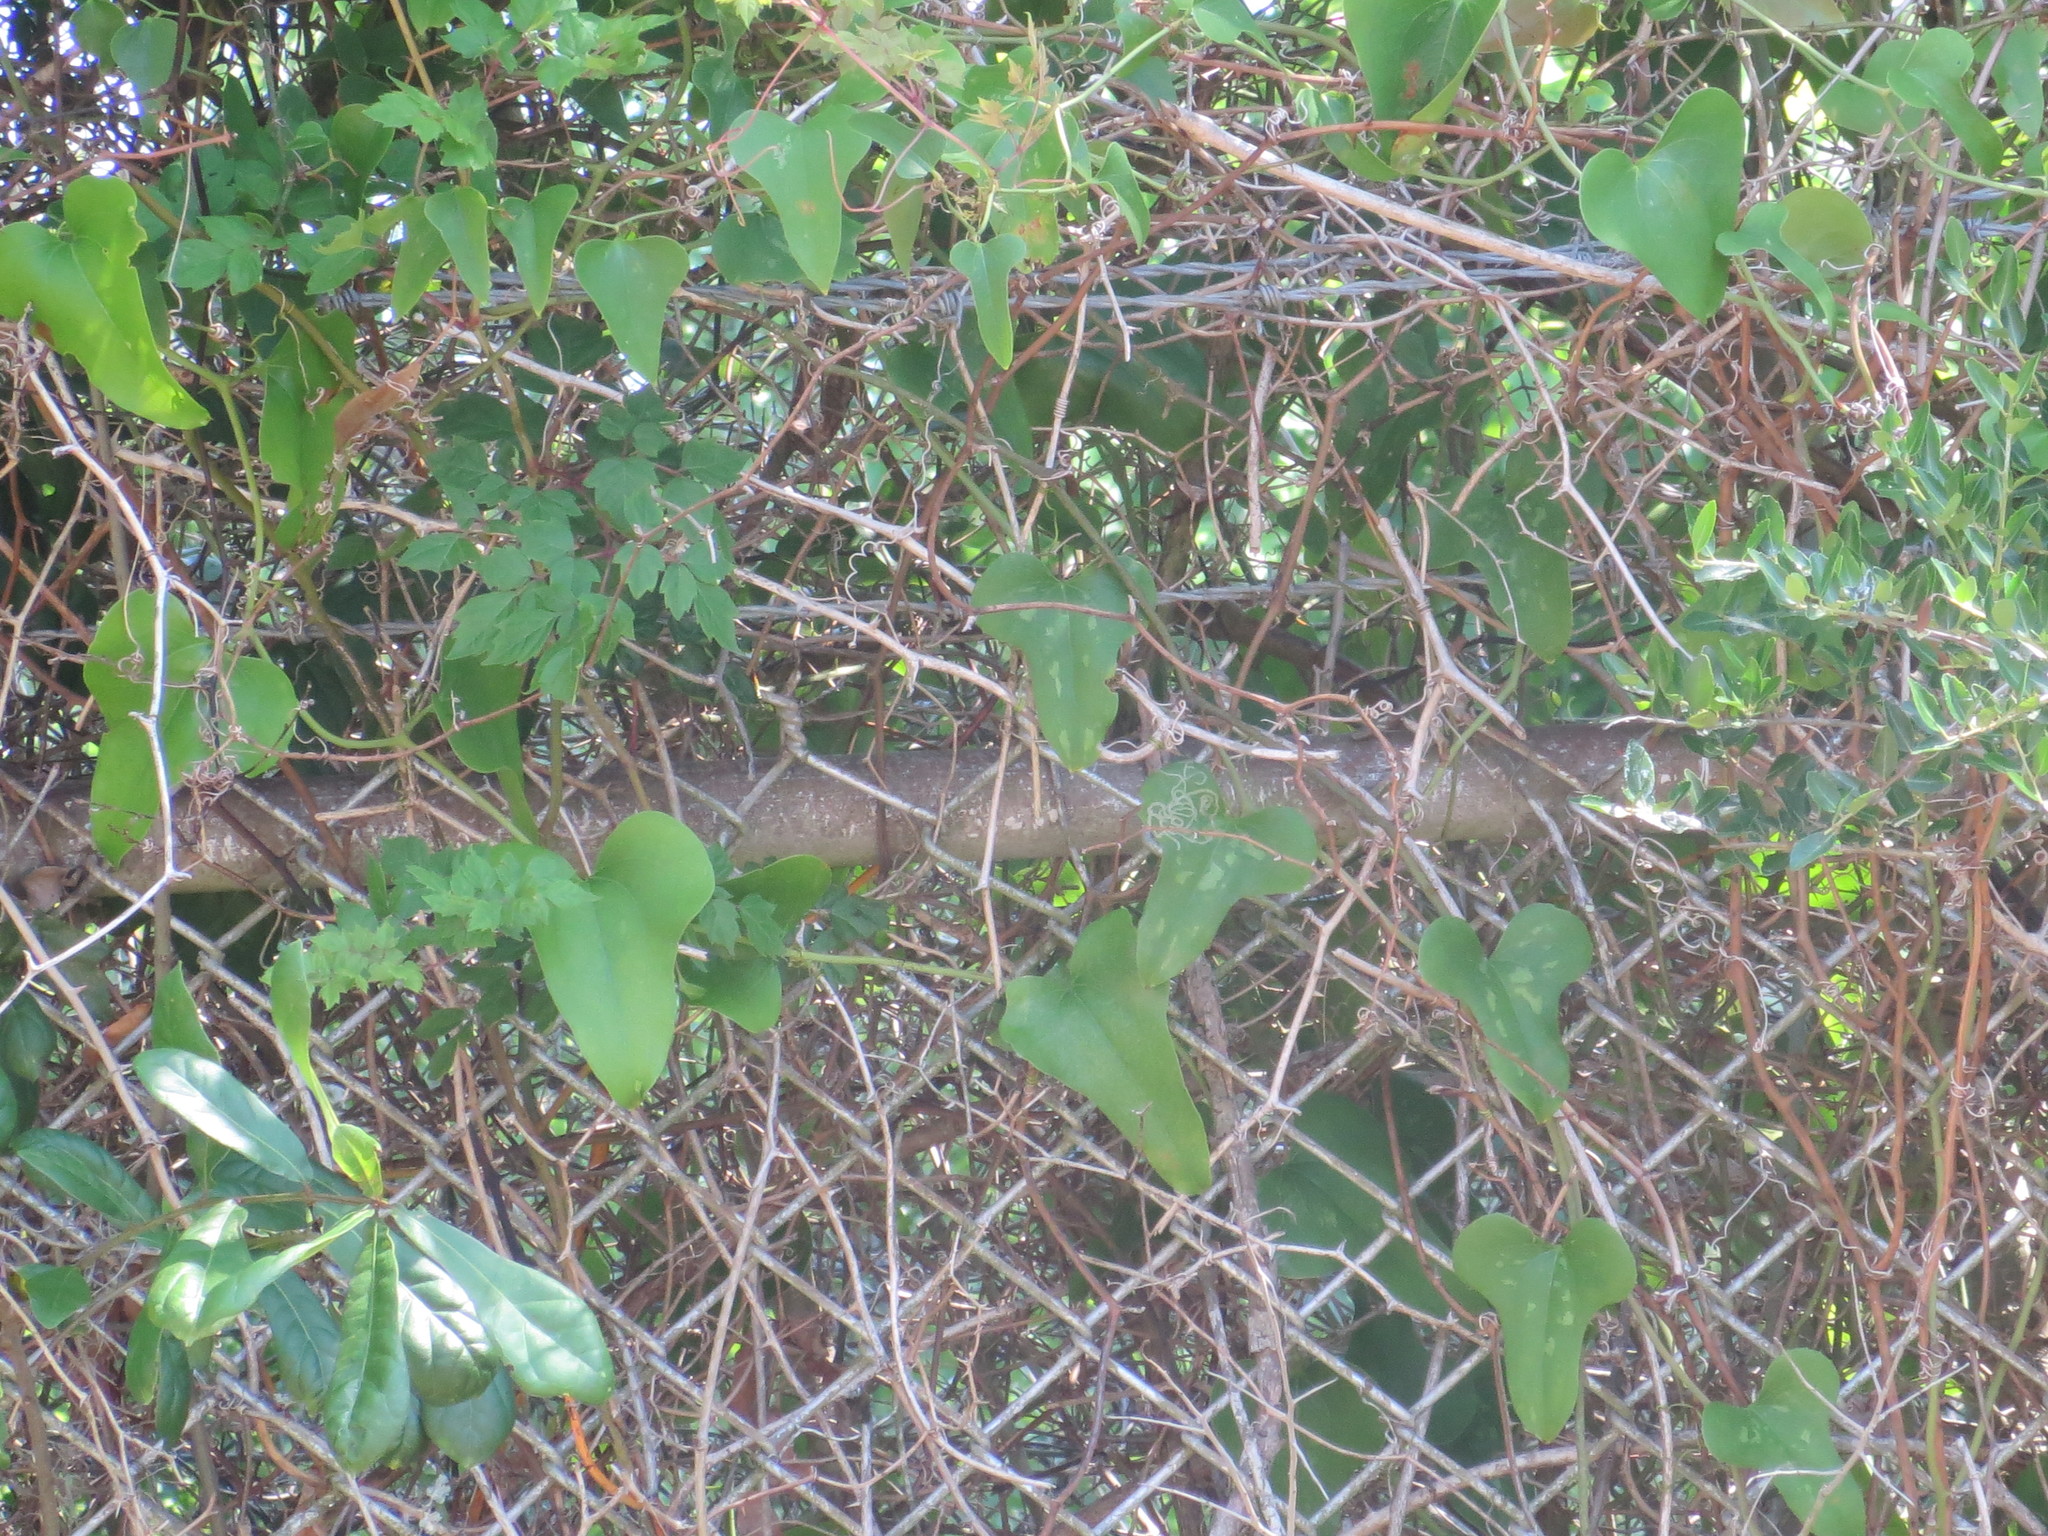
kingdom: Plantae
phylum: Tracheophyta
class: Magnoliopsida
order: Vitales
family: Vitaceae
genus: Nekemias
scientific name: Nekemias arborea
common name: Peppervine
